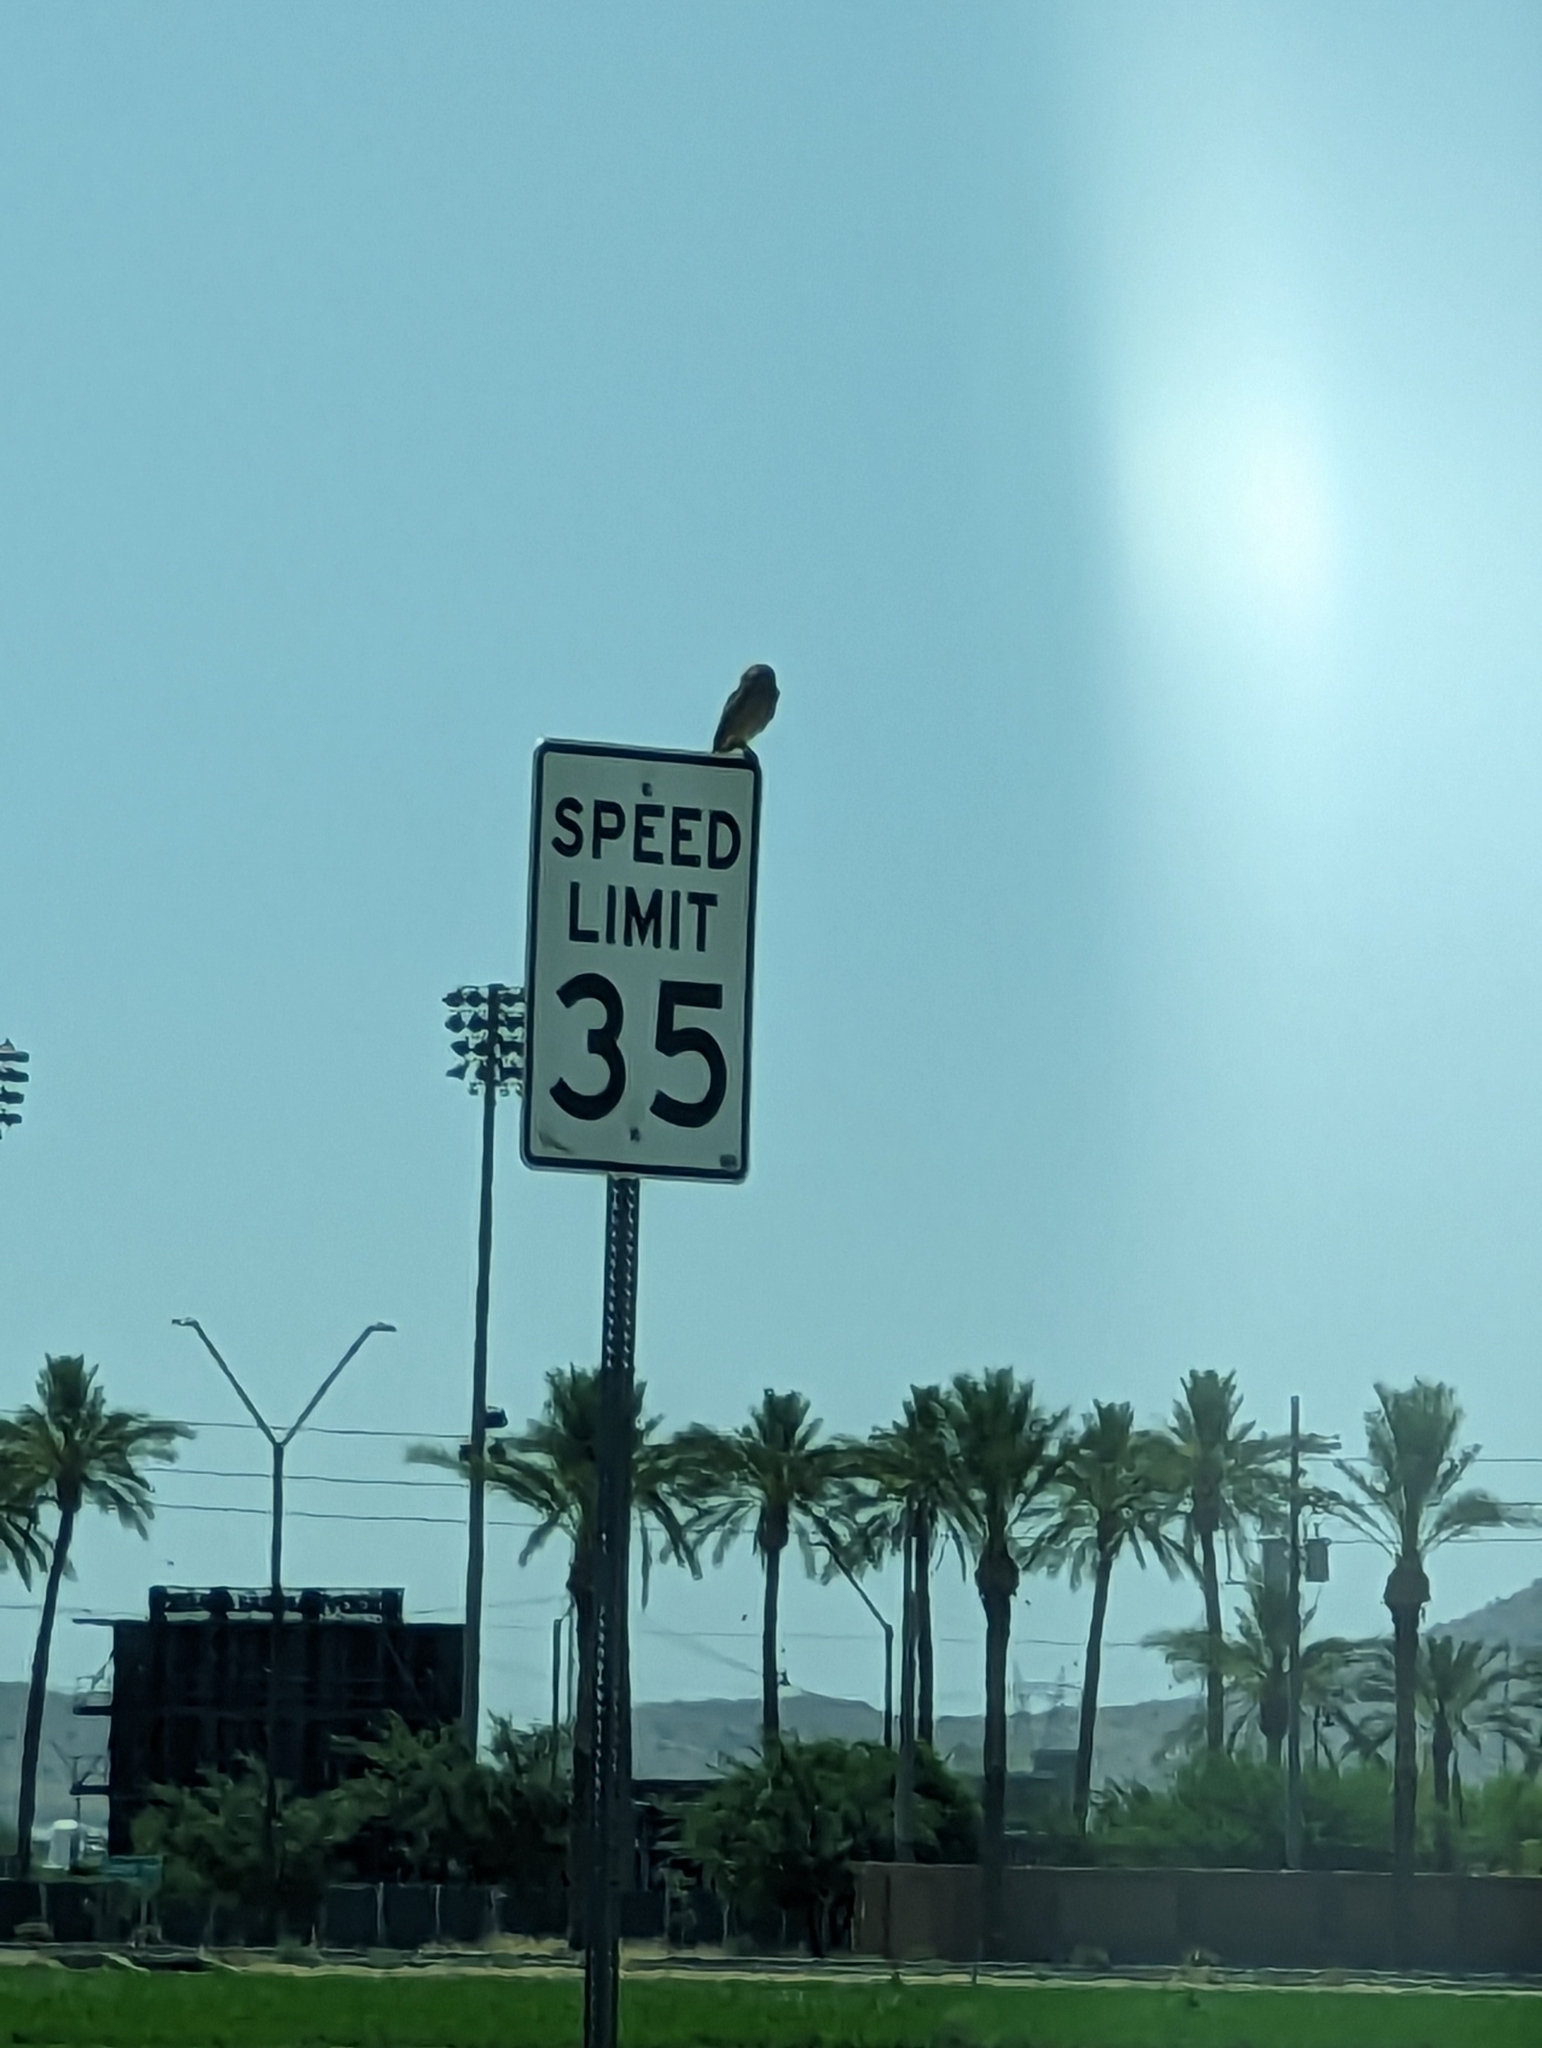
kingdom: Animalia
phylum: Chordata
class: Aves
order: Strigiformes
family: Strigidae
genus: Athene
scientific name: Athene cunicularia
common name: Burrowing owl
